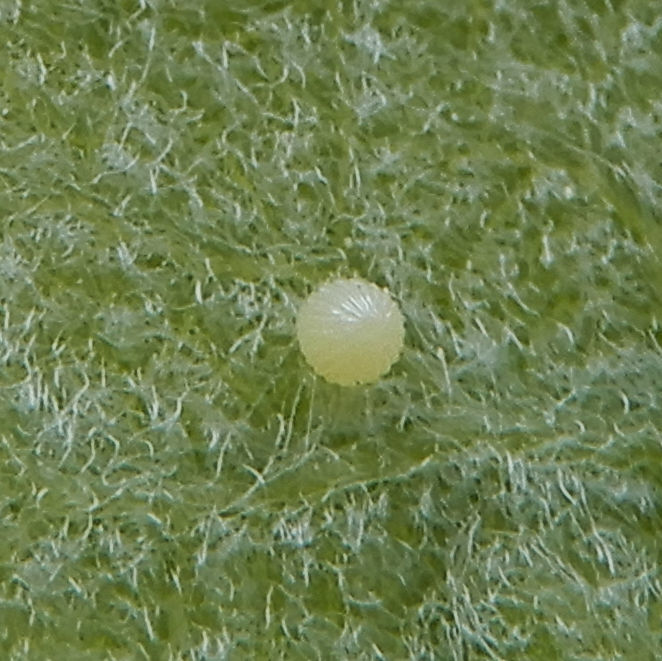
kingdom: Animalia
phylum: Arthropoda
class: Insecta
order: Lepidoptera
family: Nymphalidae
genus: Danaus
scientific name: Danaus plexippus
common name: Monarch
